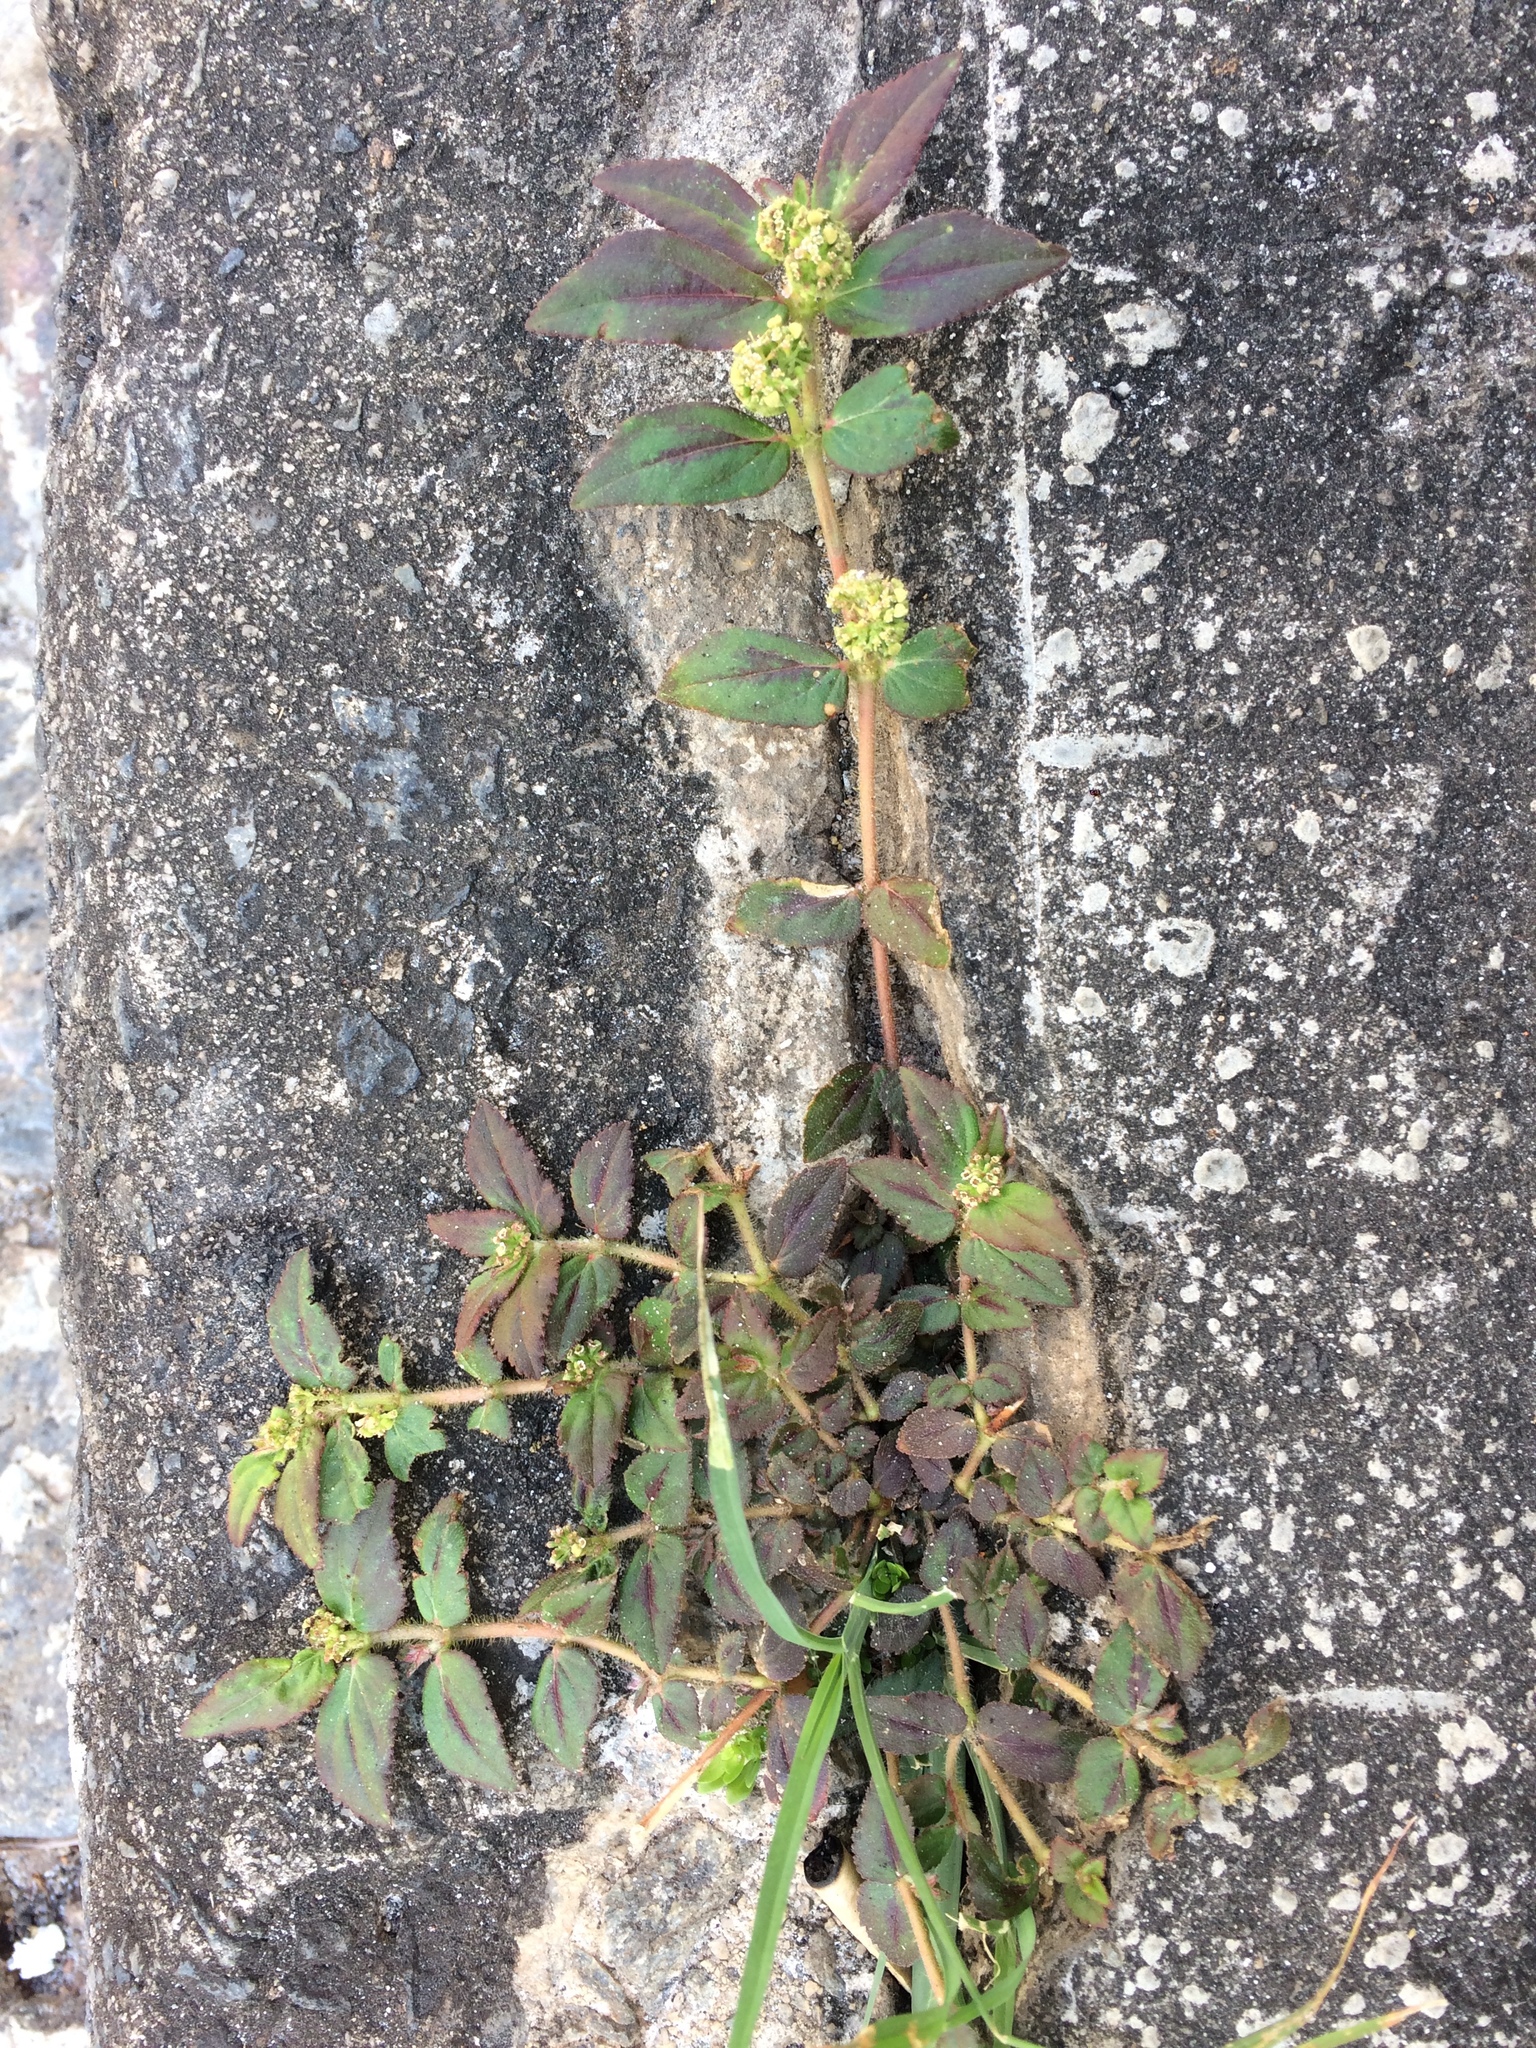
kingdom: Plantae
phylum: Tracheophyta
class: Magnoliopsida
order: Malpighiales
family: Euphorbiaceae
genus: Euphorbia
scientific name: Euphorbia hirta
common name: Pillpod sandmat
